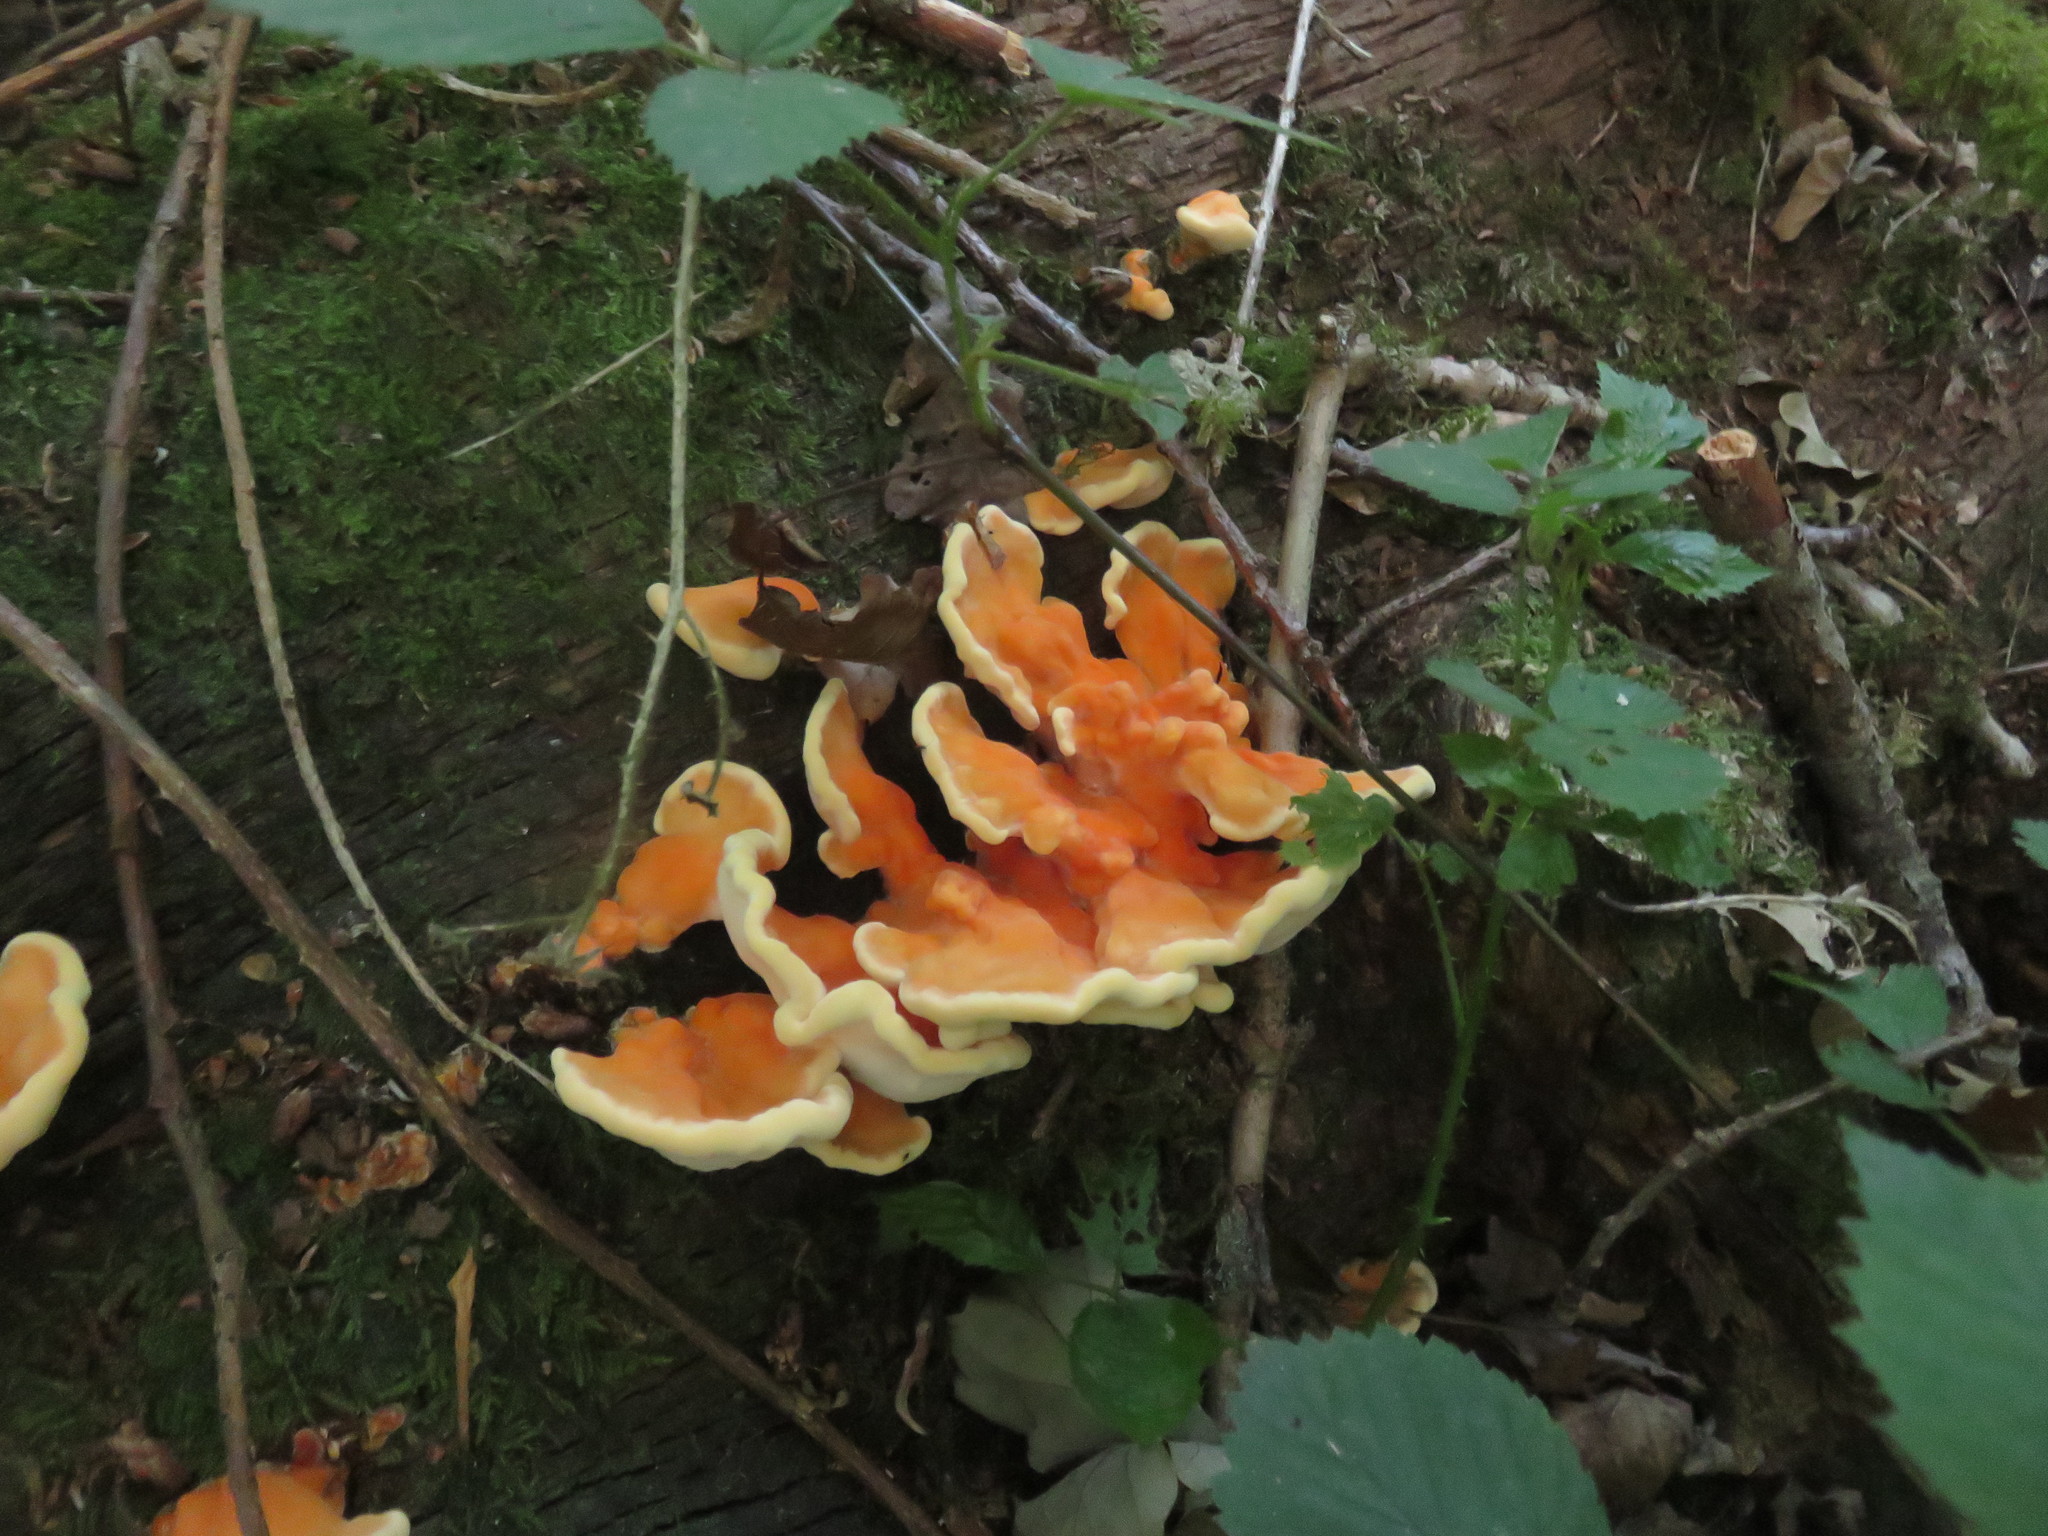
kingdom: Fungi
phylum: Basidiomycota
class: Agaricomycetes
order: Polyporales
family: Laetiporaceae
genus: Laetiporus
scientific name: Laetiporus sulphureus
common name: Chicken of the woods
